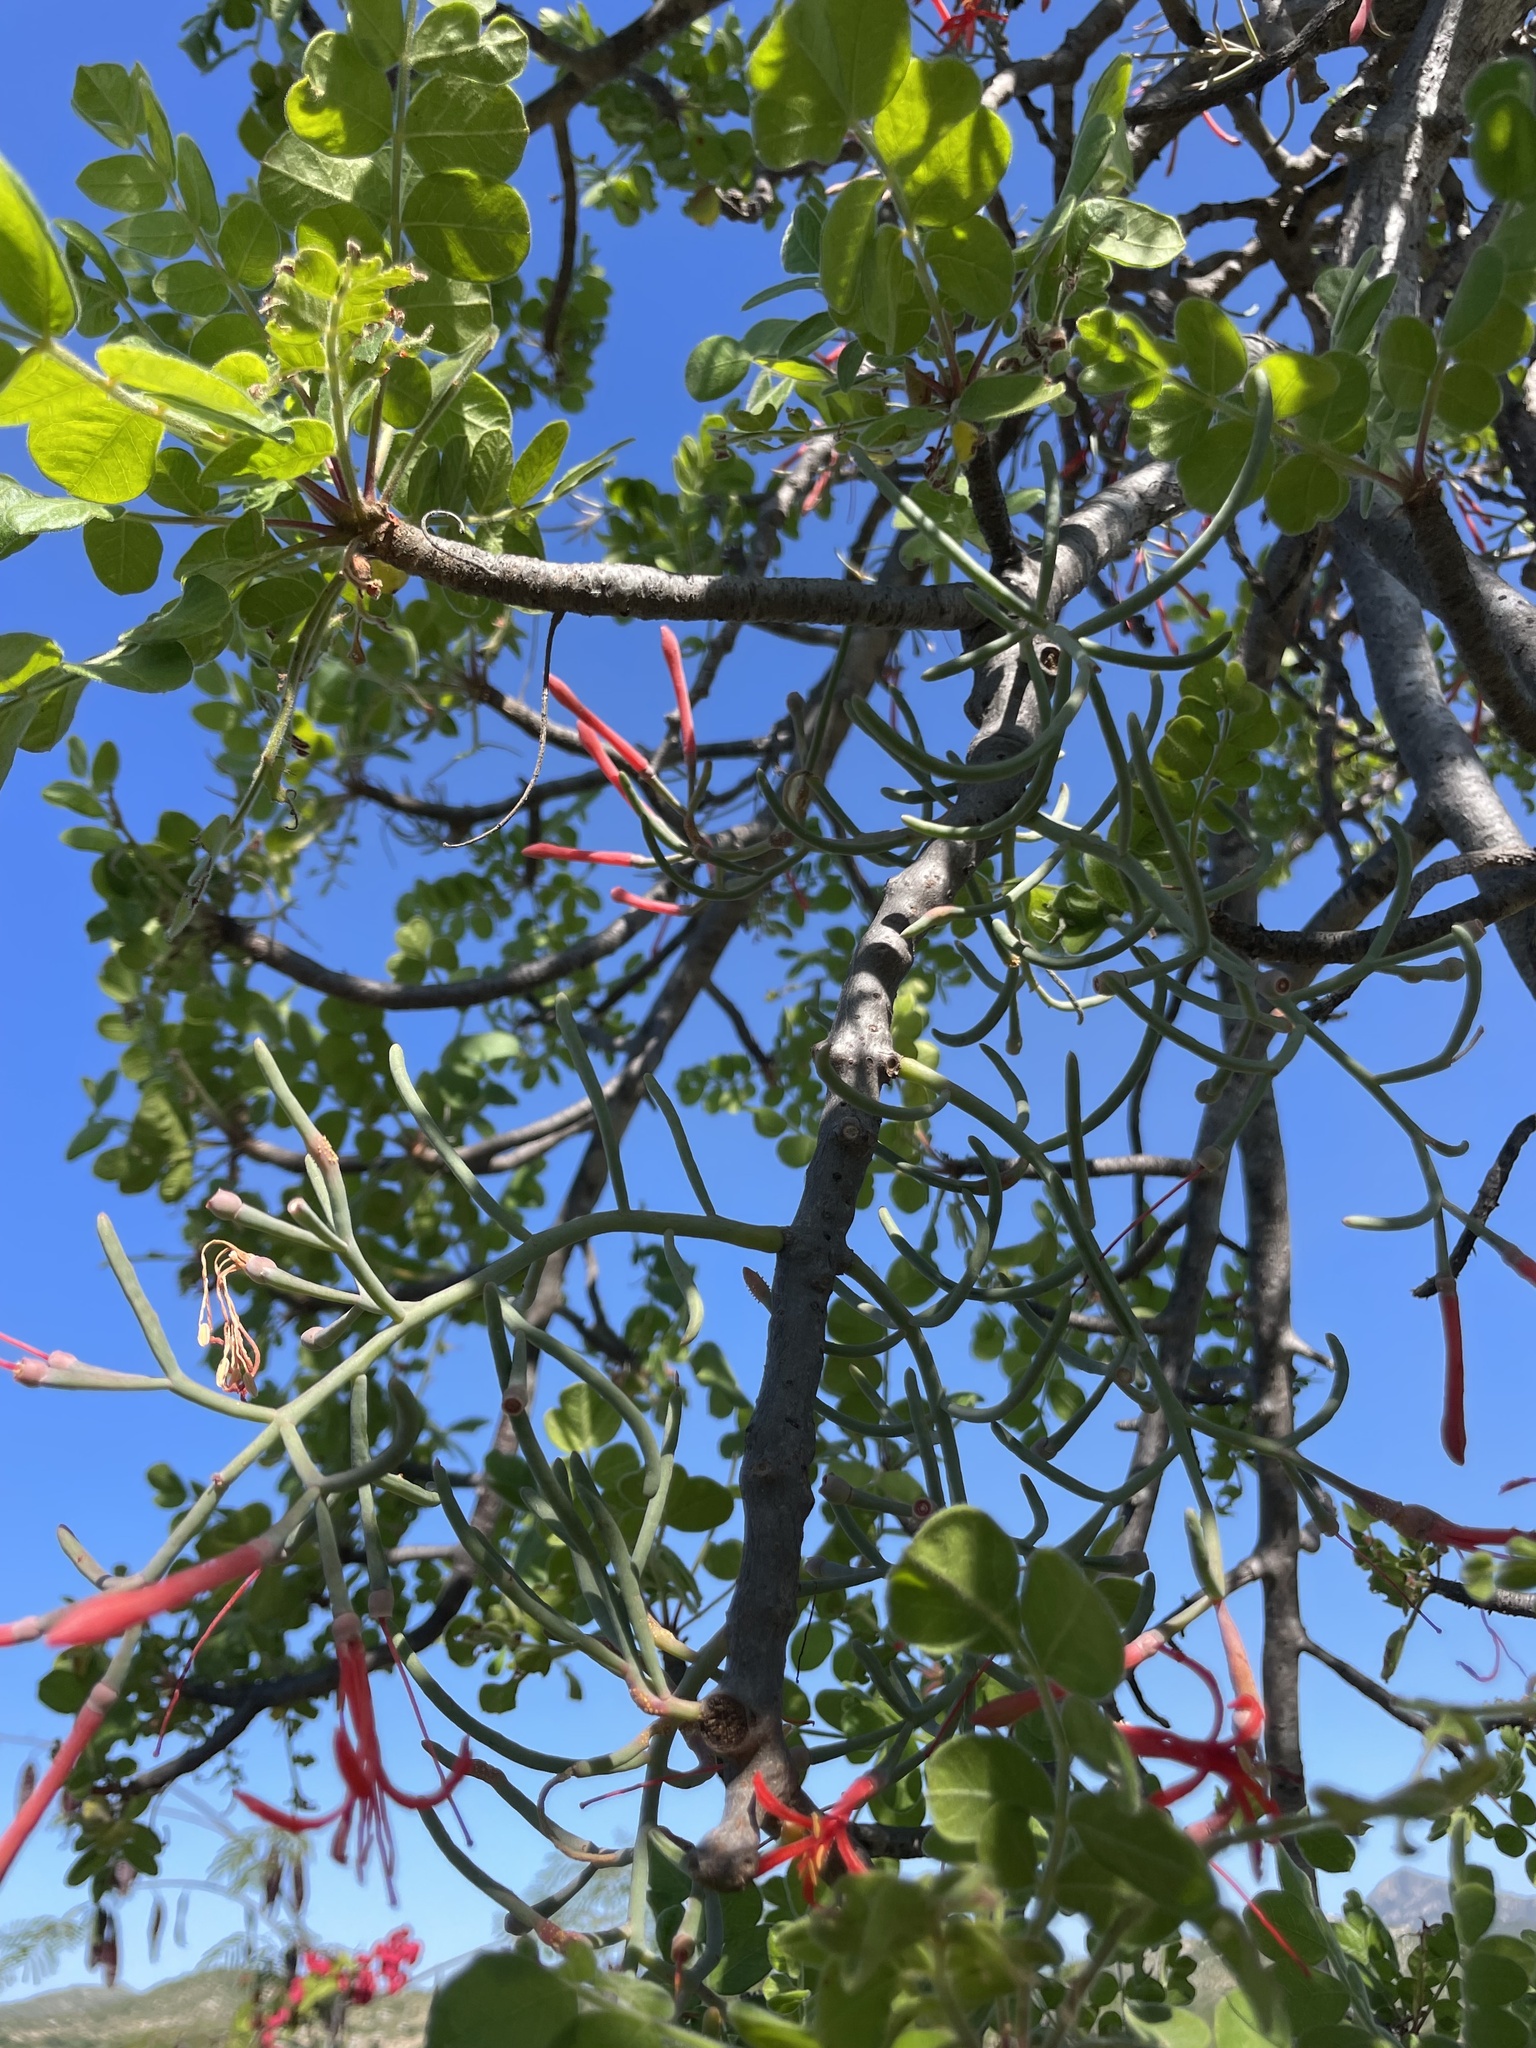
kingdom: Plantae
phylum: Tracheophyta
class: Magnoliopsida
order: Santalales
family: Loranthaceae
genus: Psittacanthus
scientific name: Psittacanthus sonorae
